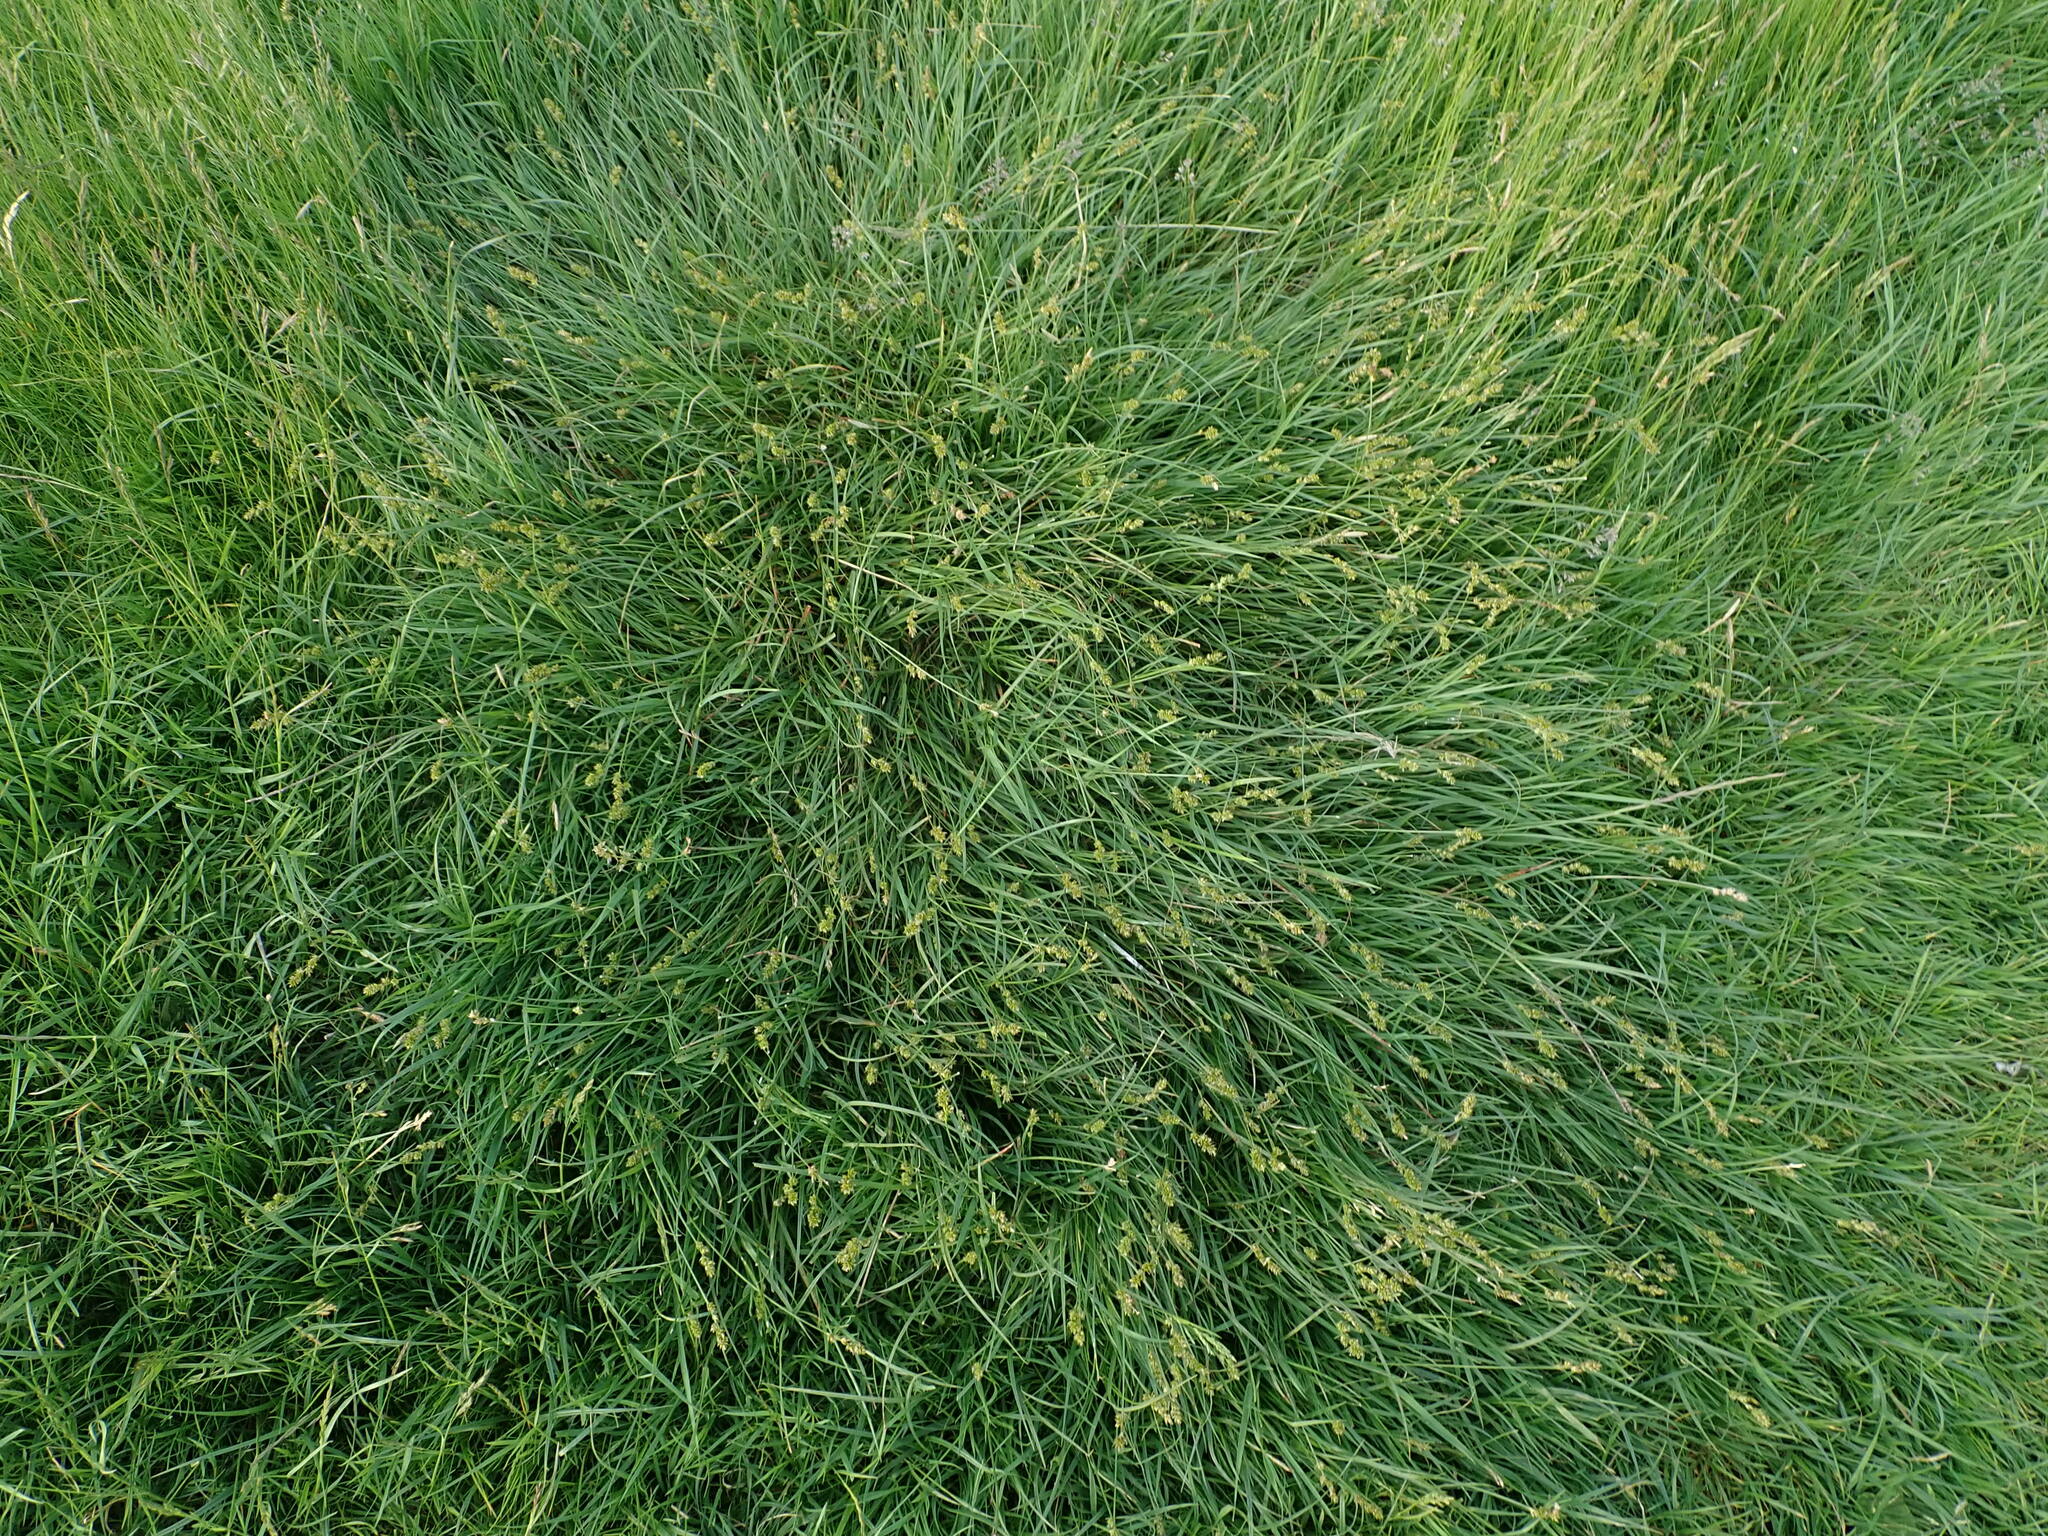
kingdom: Plantae
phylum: Tracheophyta
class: Liliopsida
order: Poales
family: Cyperaceae
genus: Carex
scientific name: Carex spicata
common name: Spiked sedge
